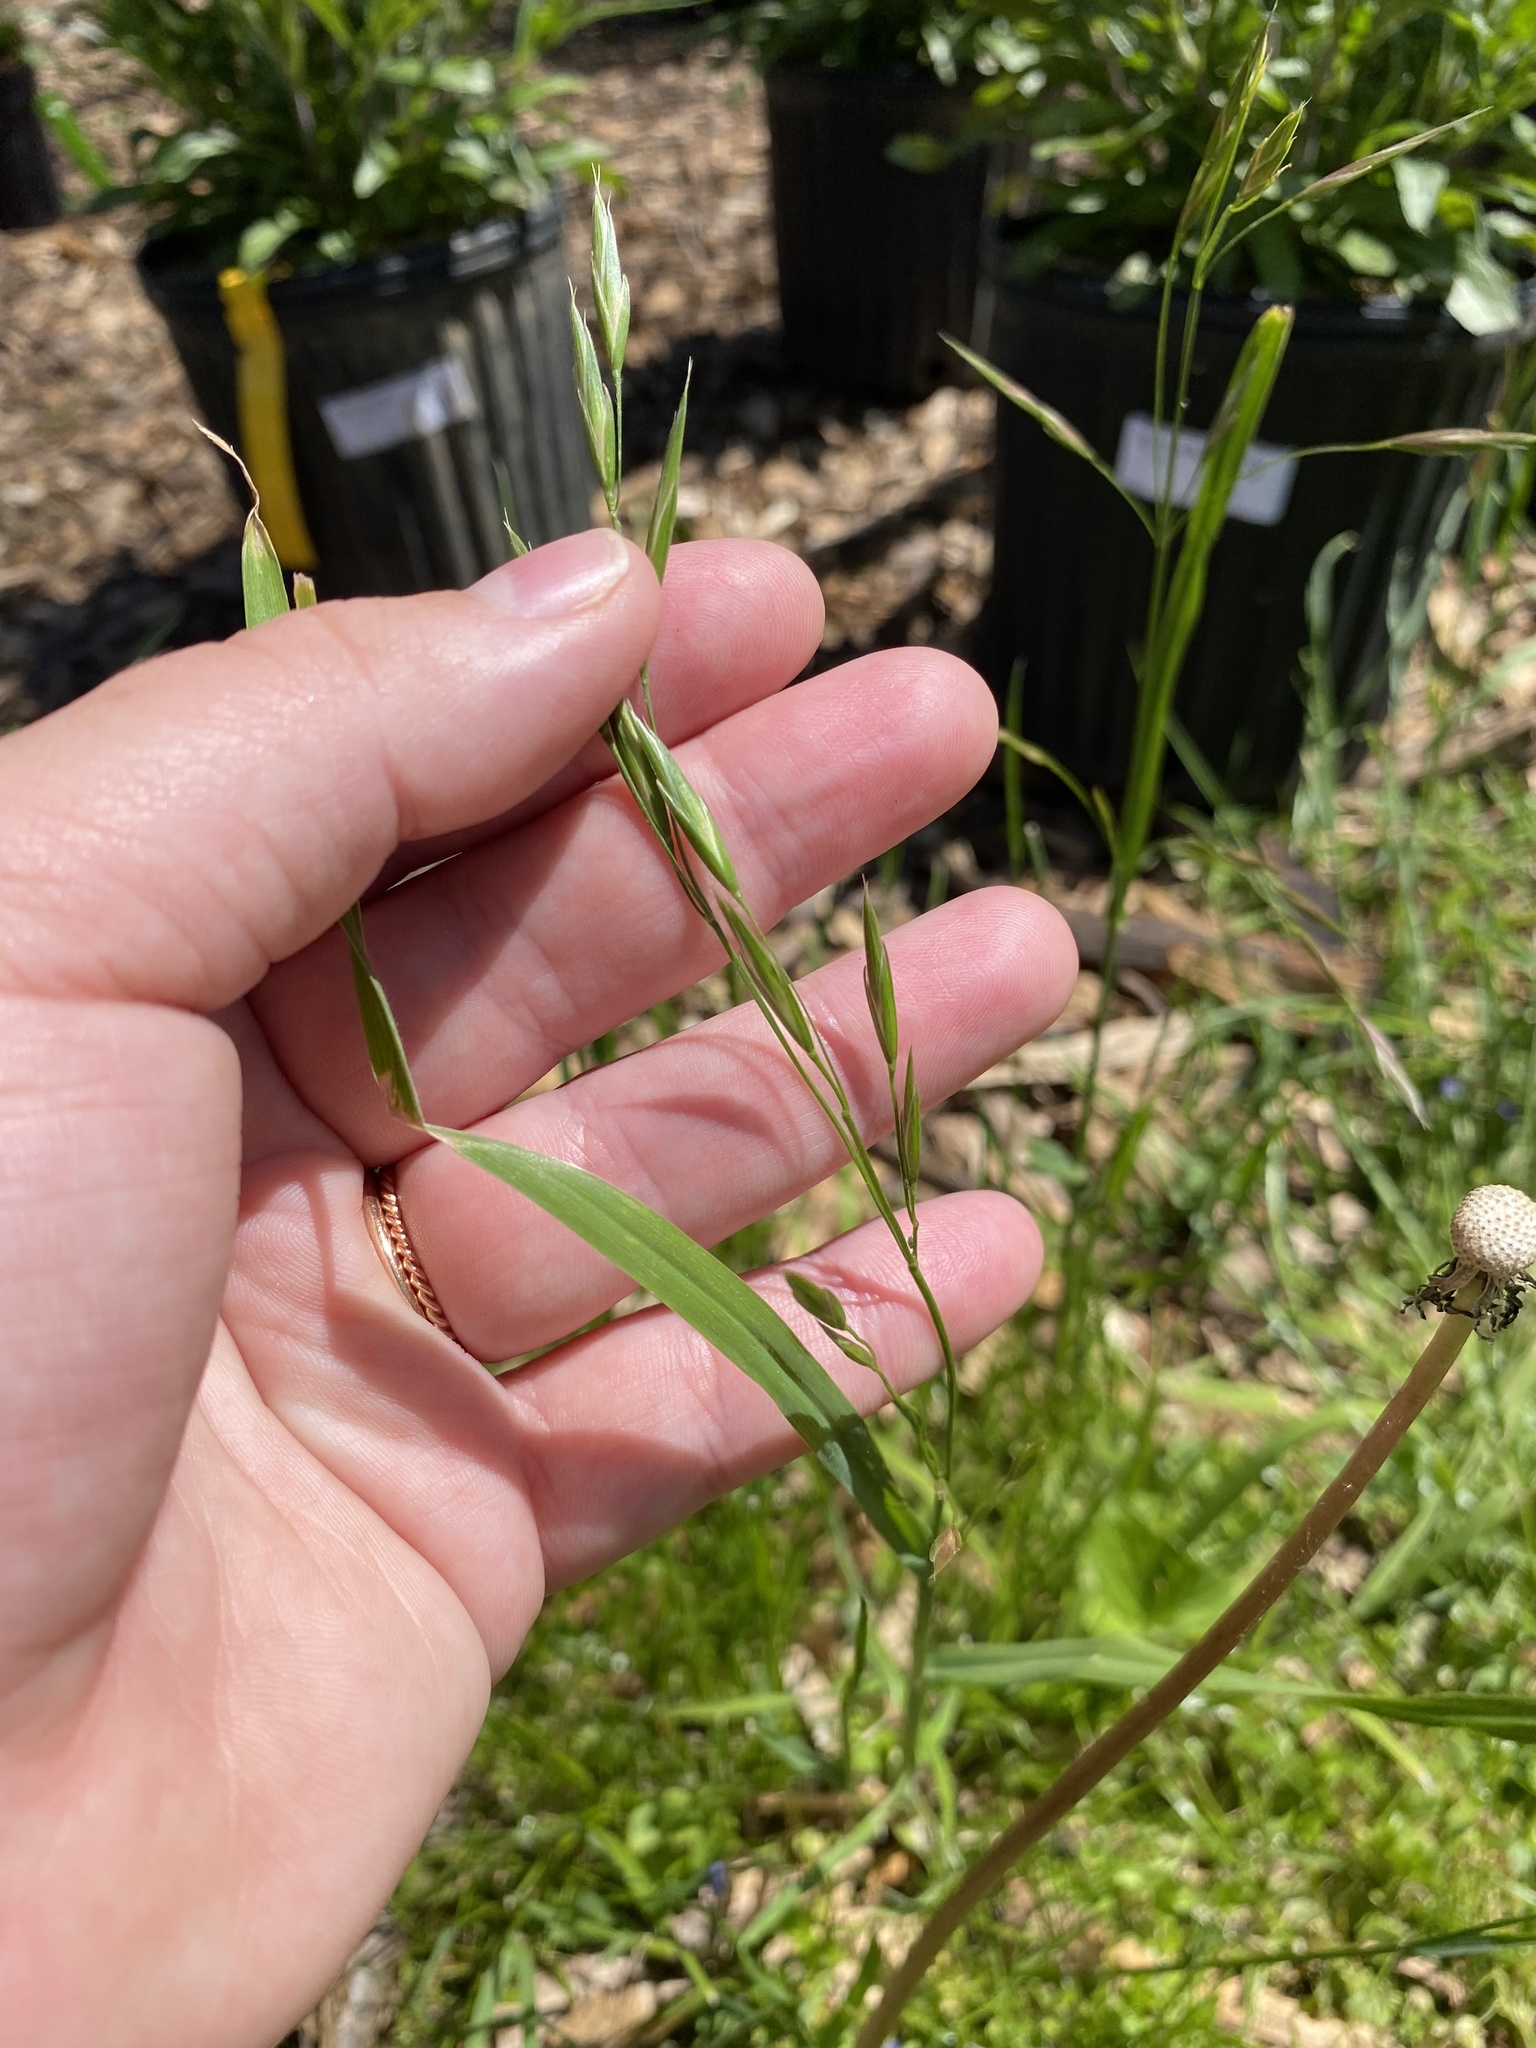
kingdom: Plantae
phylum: Tracheophyta
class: Liliopsida
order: Poales
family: Poaceae
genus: Bromus
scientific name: Bromus hordeaceus
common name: Soft brome
